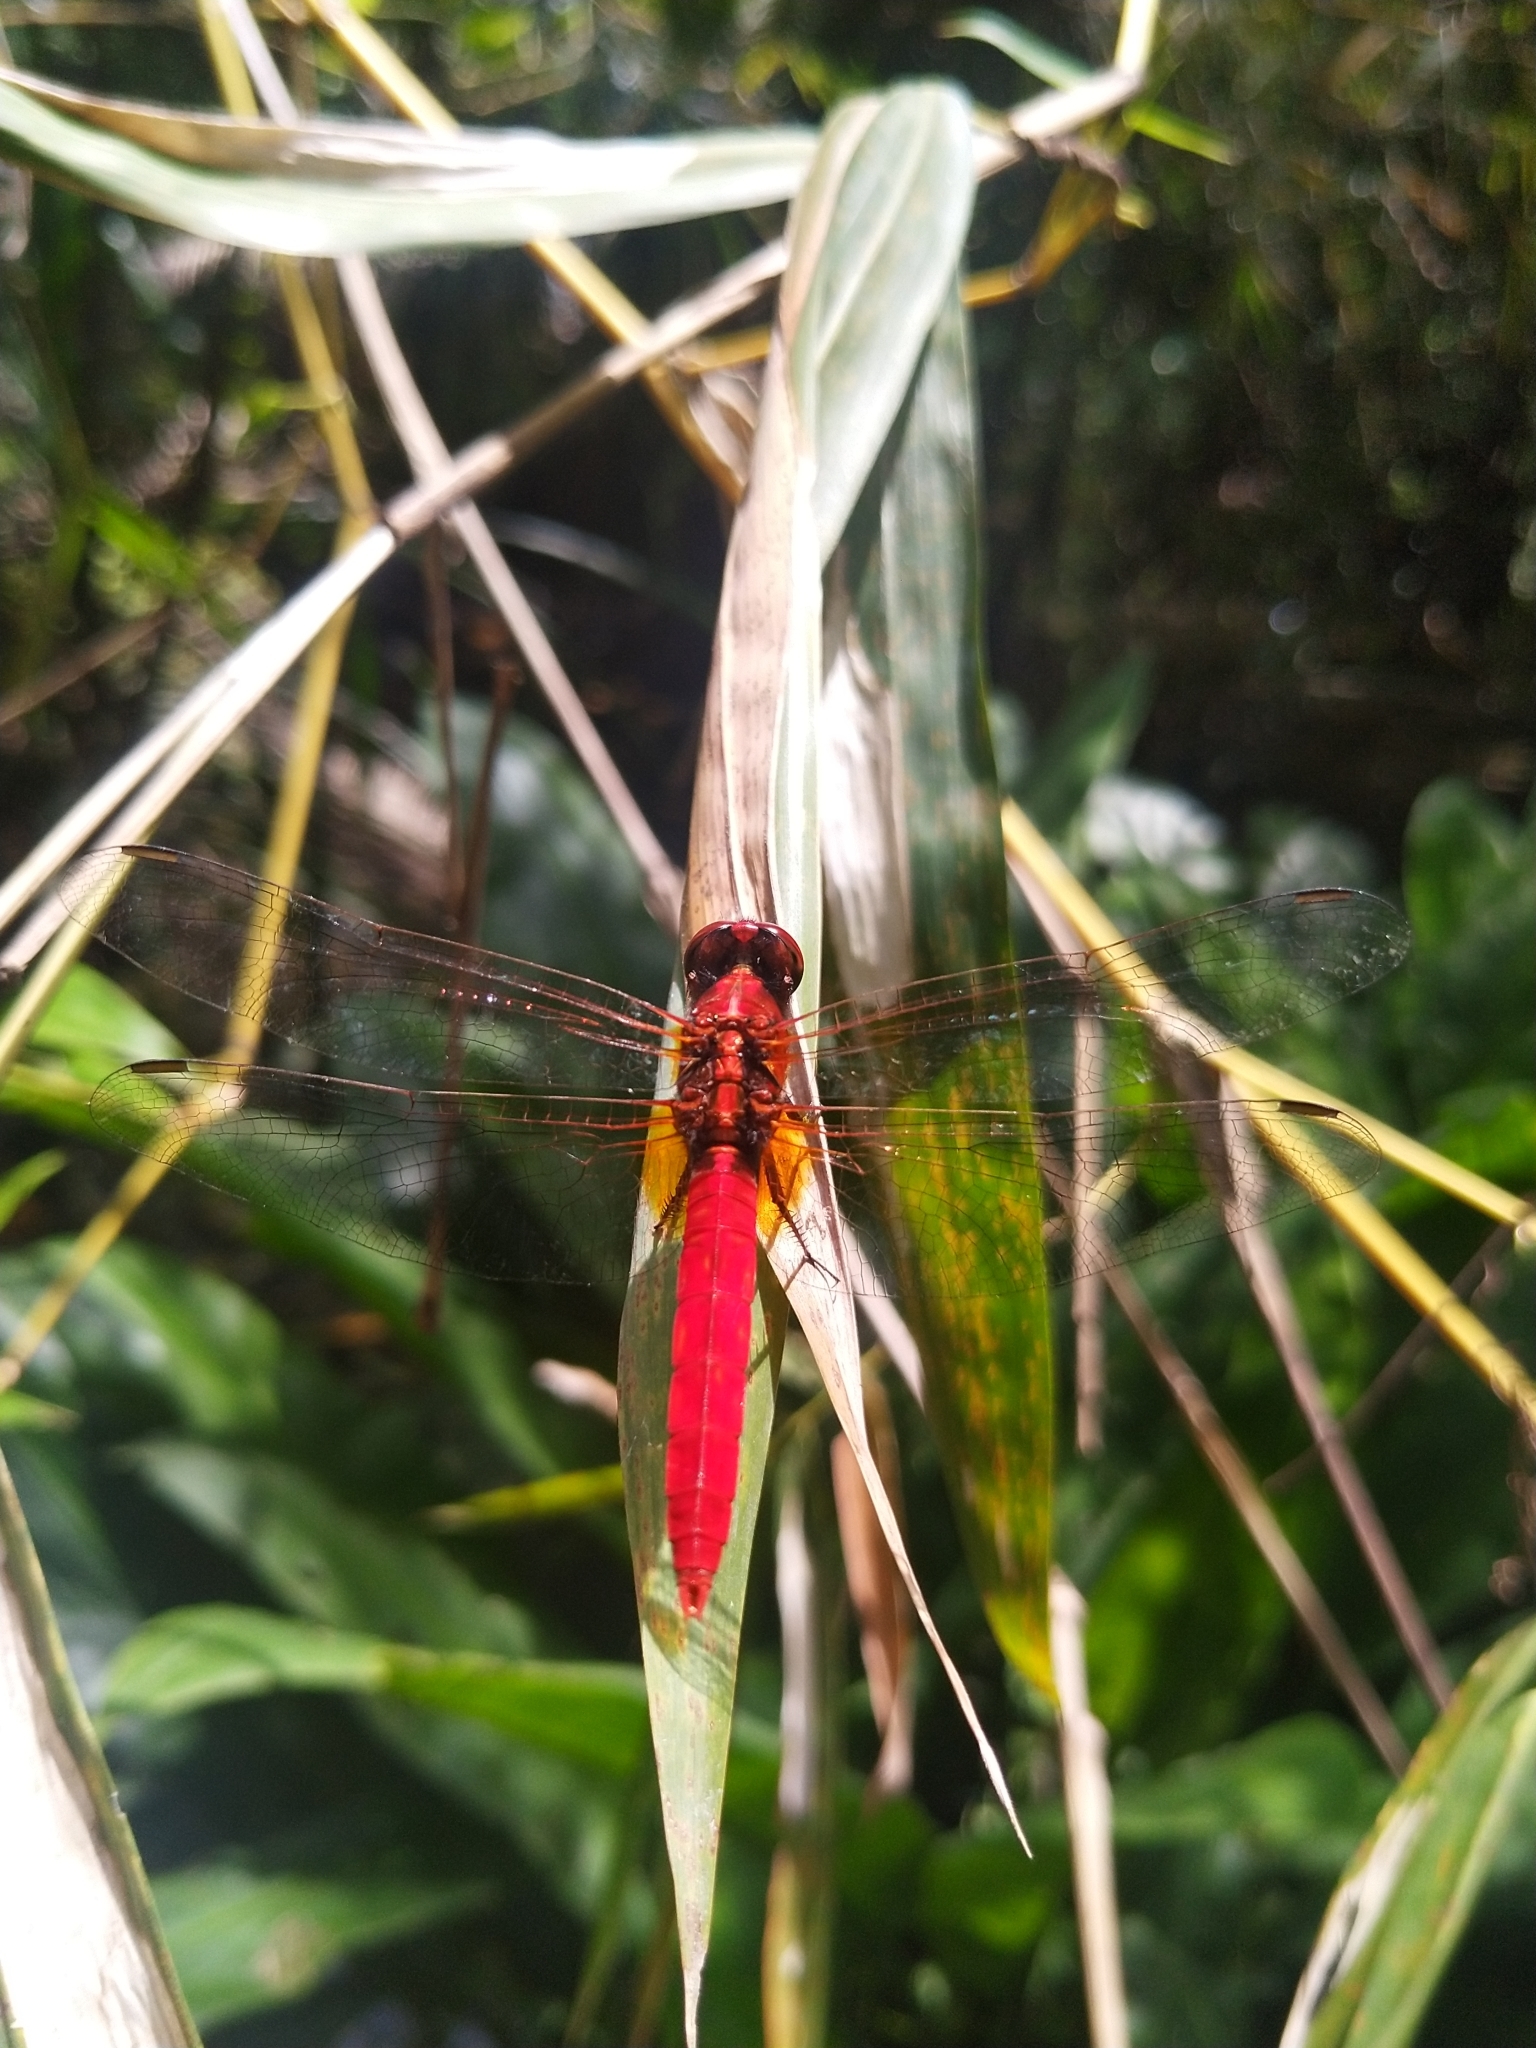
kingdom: Animalia
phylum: Arthropoda
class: Insecta
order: Odonata
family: Libellulidae
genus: Rhodothemis
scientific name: Rhodothemis rufa
